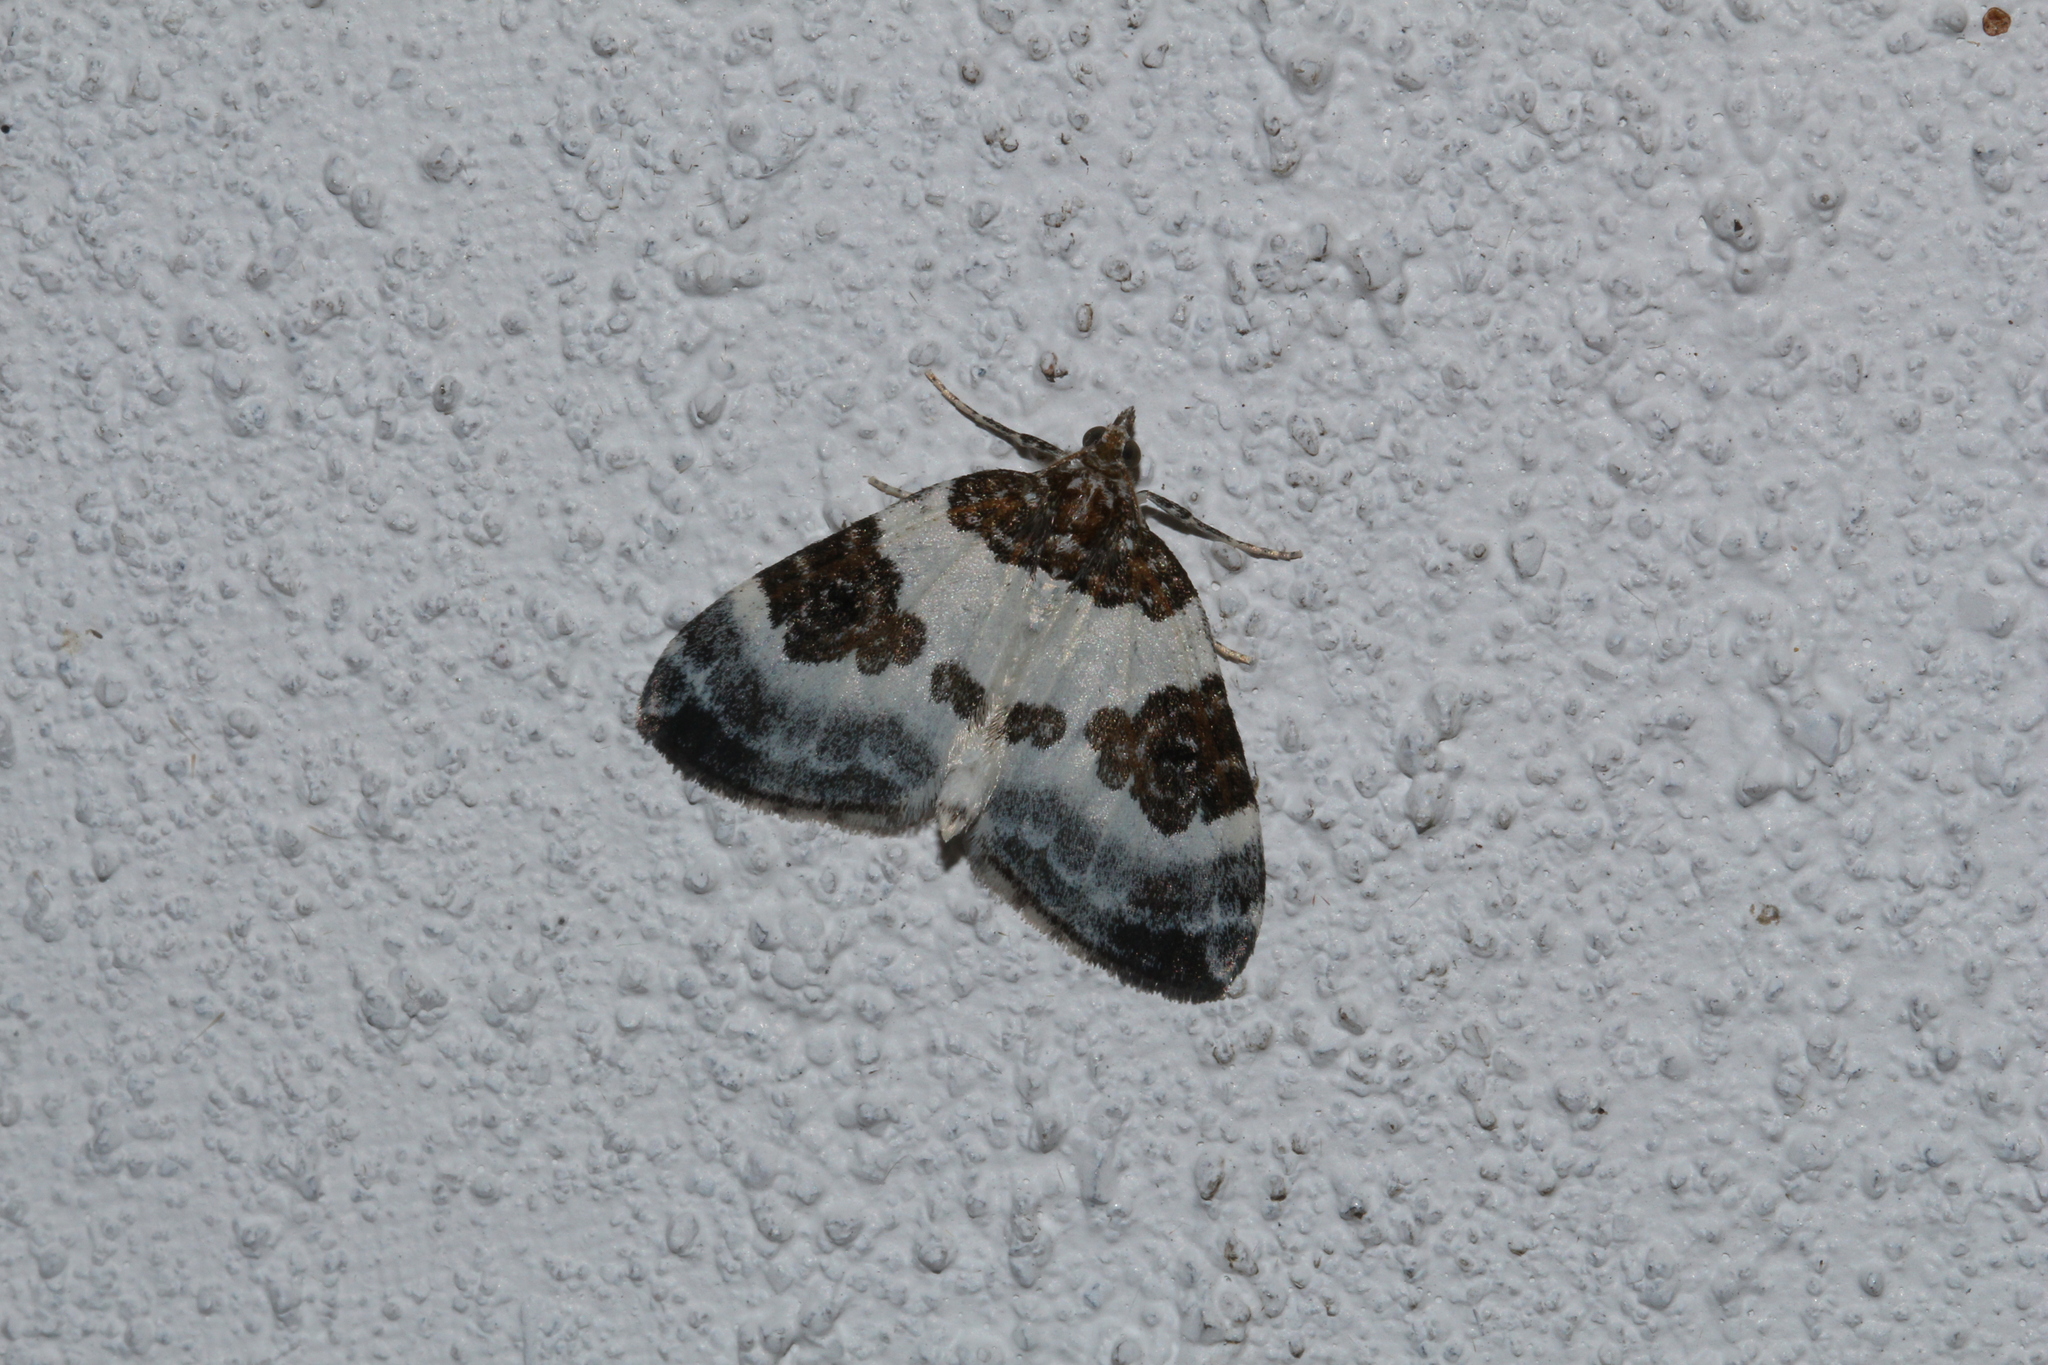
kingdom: Animalia
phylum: Arthropoda
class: Insecta
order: Lepidoptera
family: Geometridae
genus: Plemyria
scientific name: Plemyria rubiginata
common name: Blue-bordered carpet
